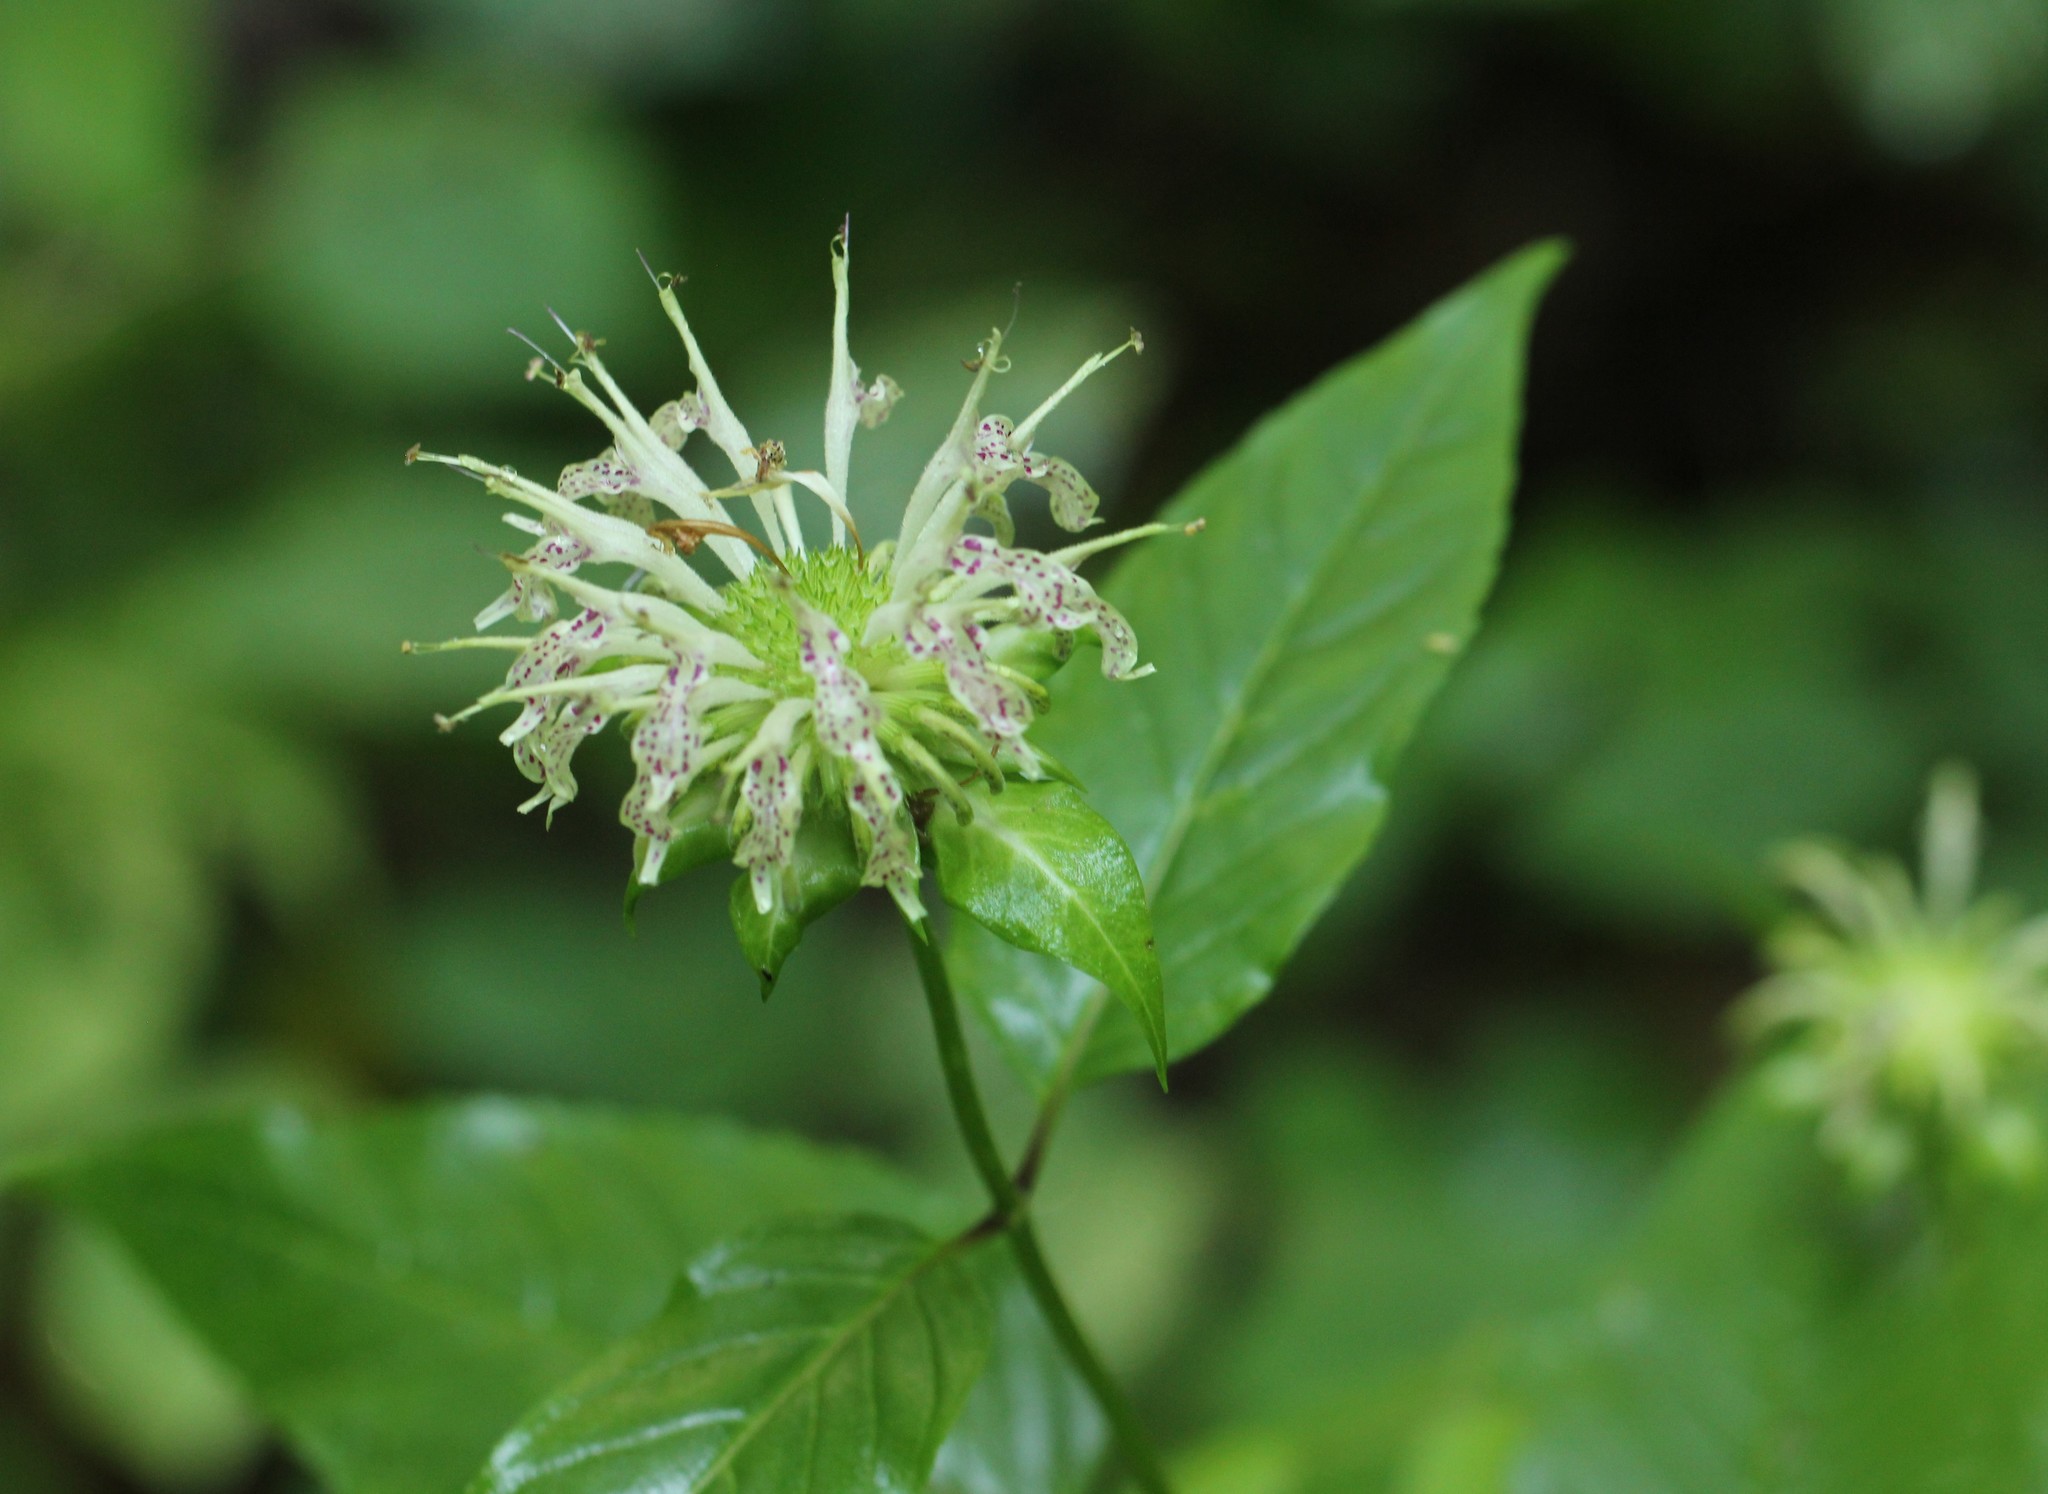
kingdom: Plantae
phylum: Tracheophyta
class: Magnoliopsida
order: Lamiales
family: Lamiaceae
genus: Monarda
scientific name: Monarda clinopodia
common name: Basil beebalm
